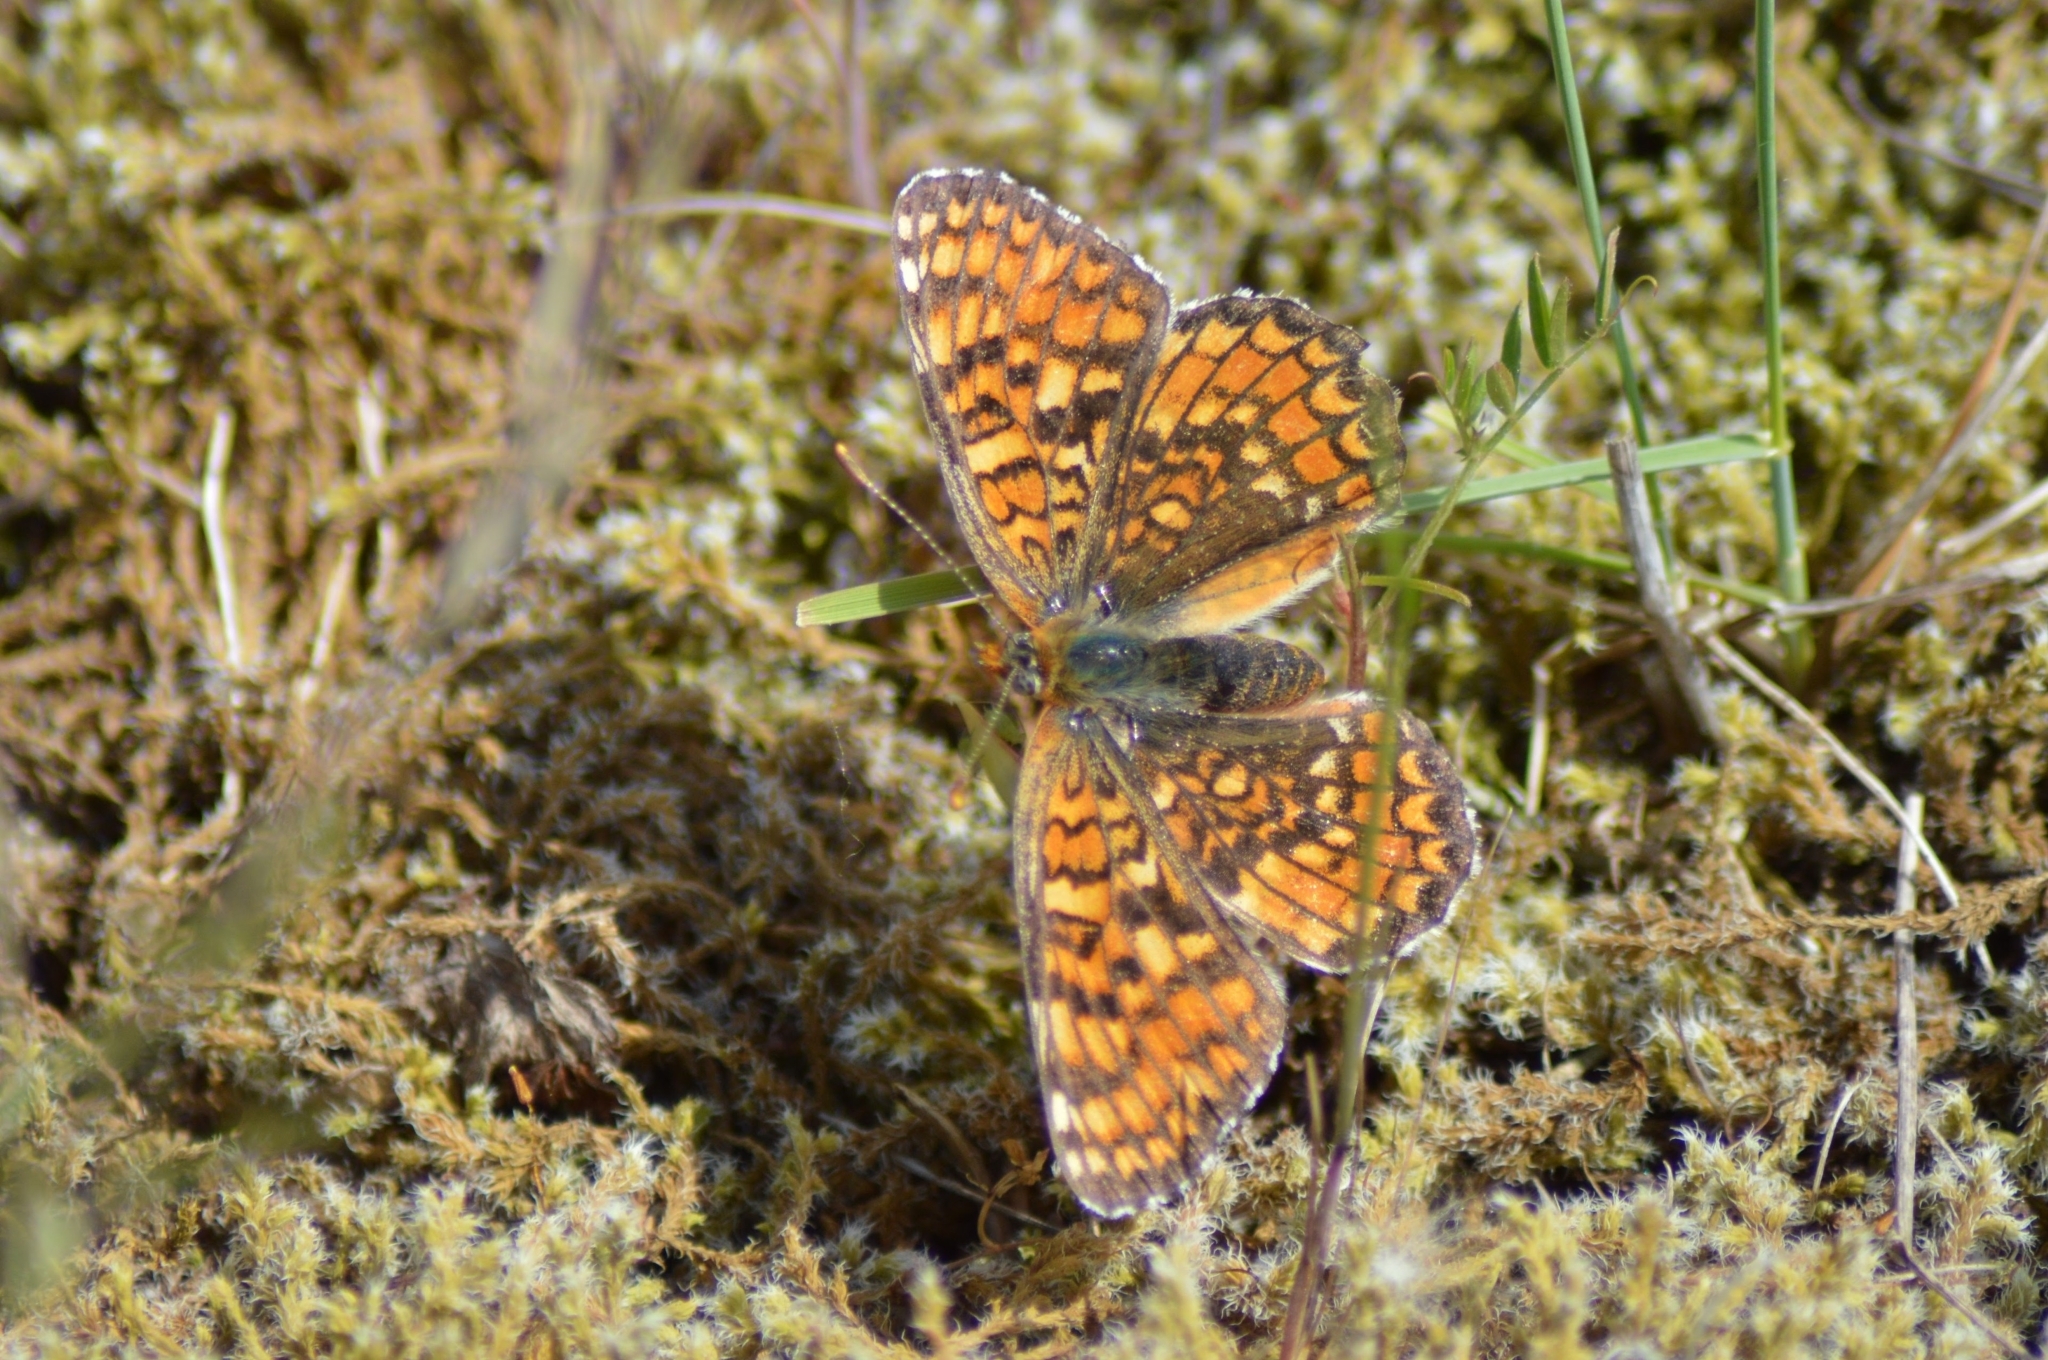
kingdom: Animalia
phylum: Arthropoda
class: Insecta
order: Lepidoptera
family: Nymphalidae
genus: Melitaea
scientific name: Melitaea phoebe
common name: Knapweed fritillary
